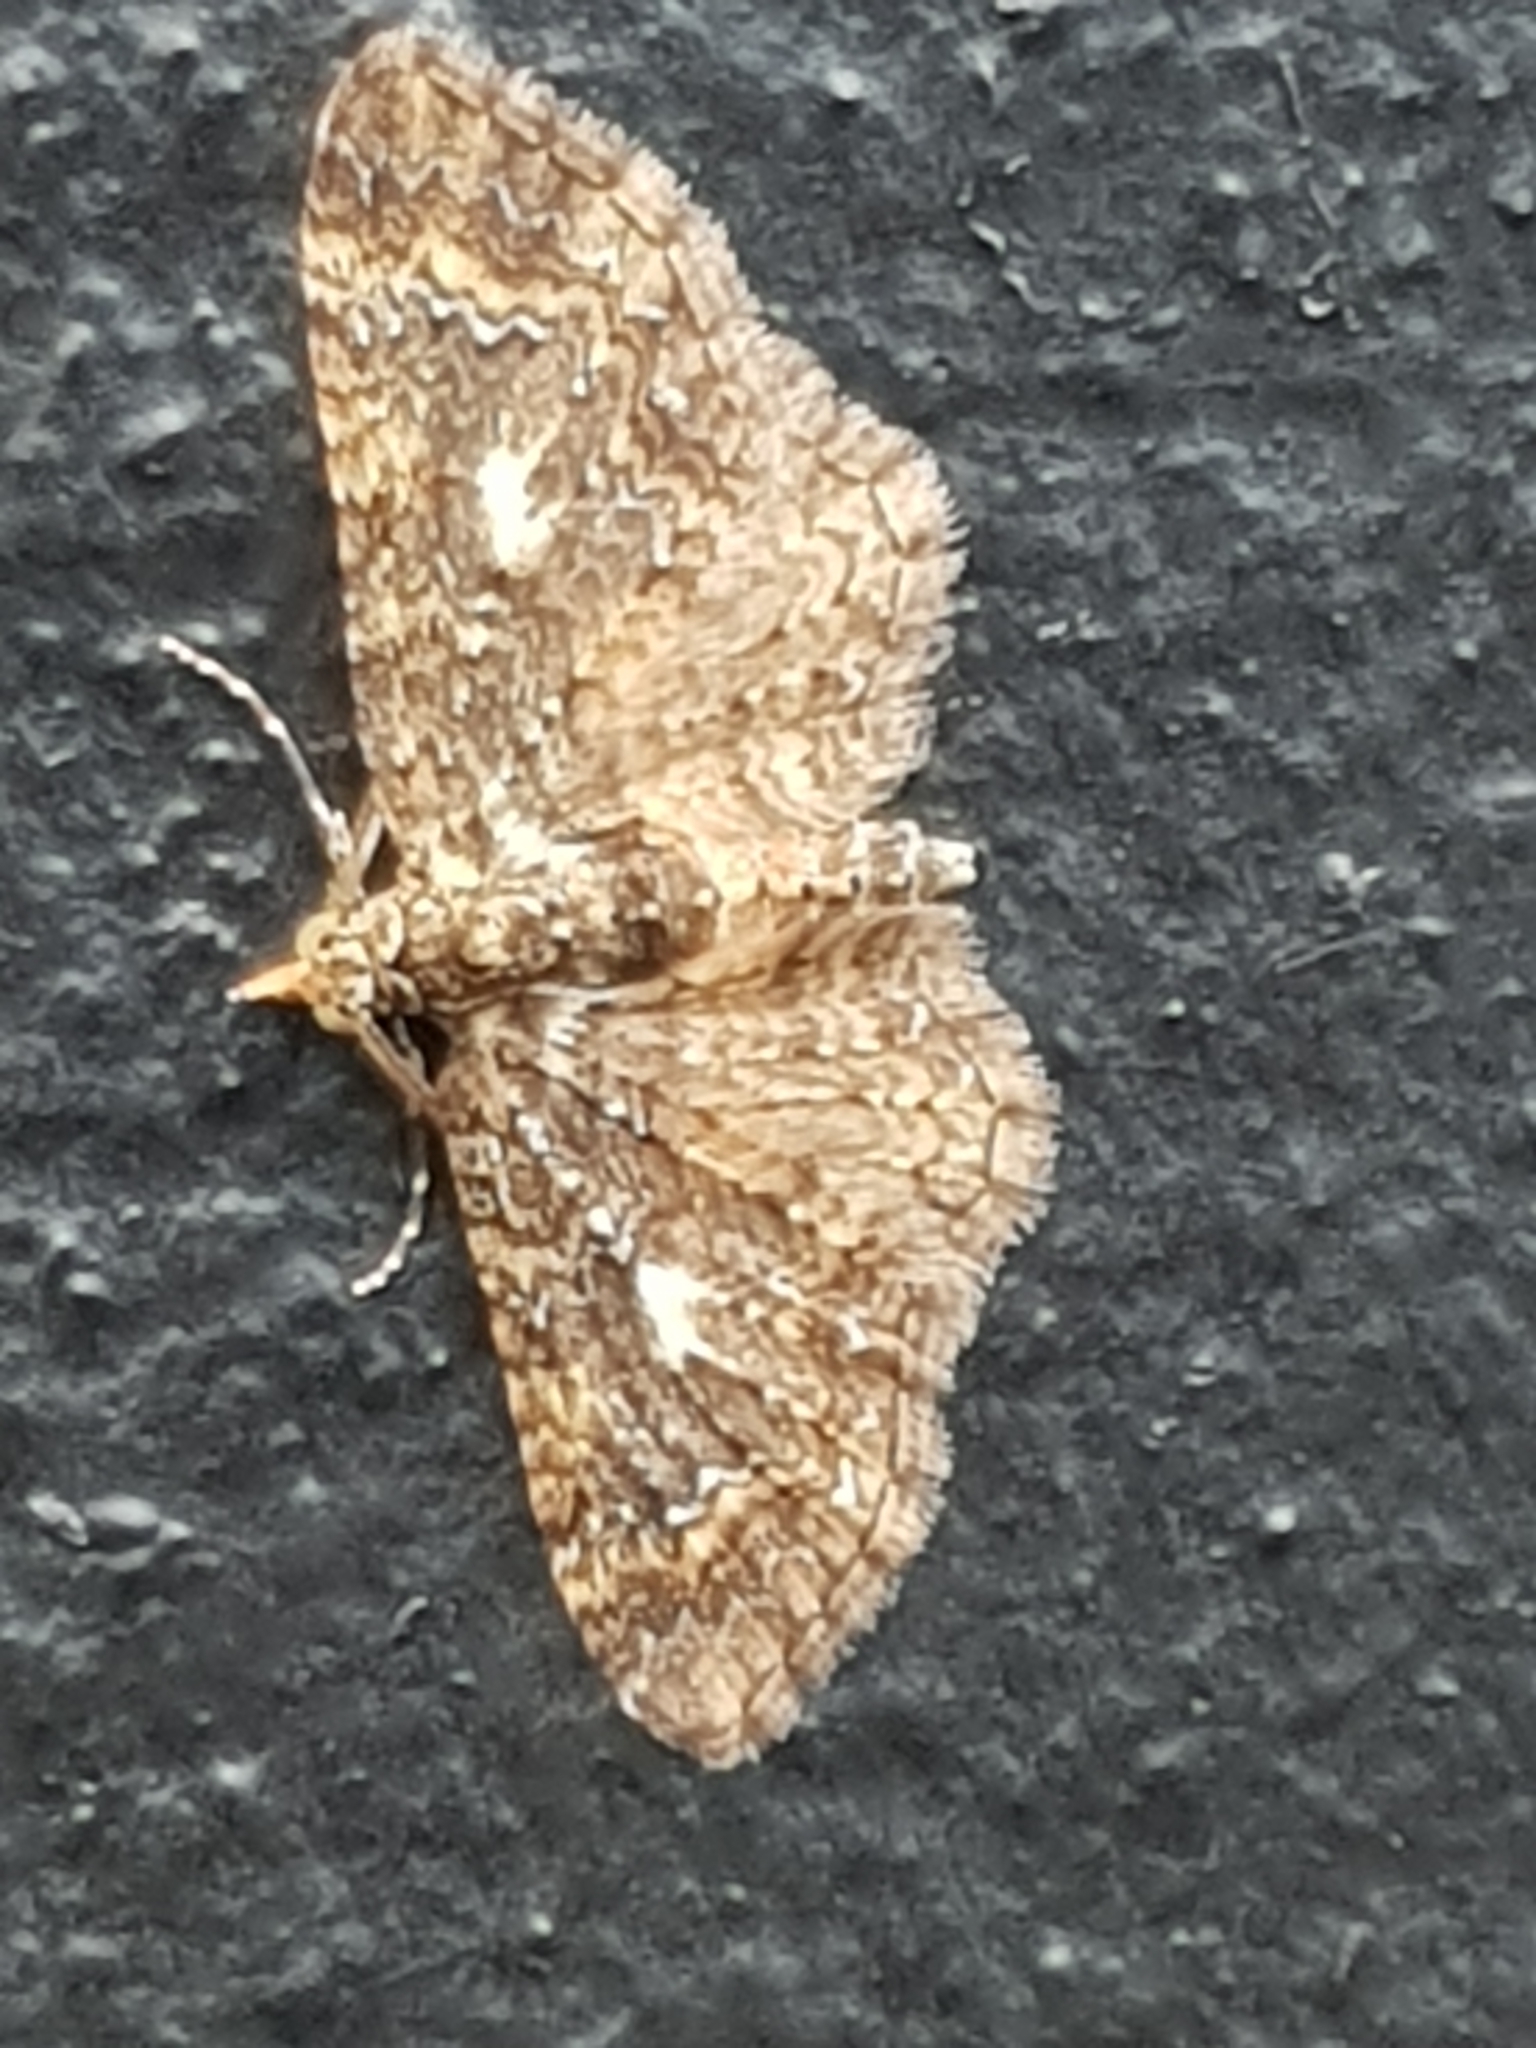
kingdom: Animalia
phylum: Arthropoda
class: Insecta
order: Lepidoptera
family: Geometridae
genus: Pasiphila
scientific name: Pasiphila lunata
